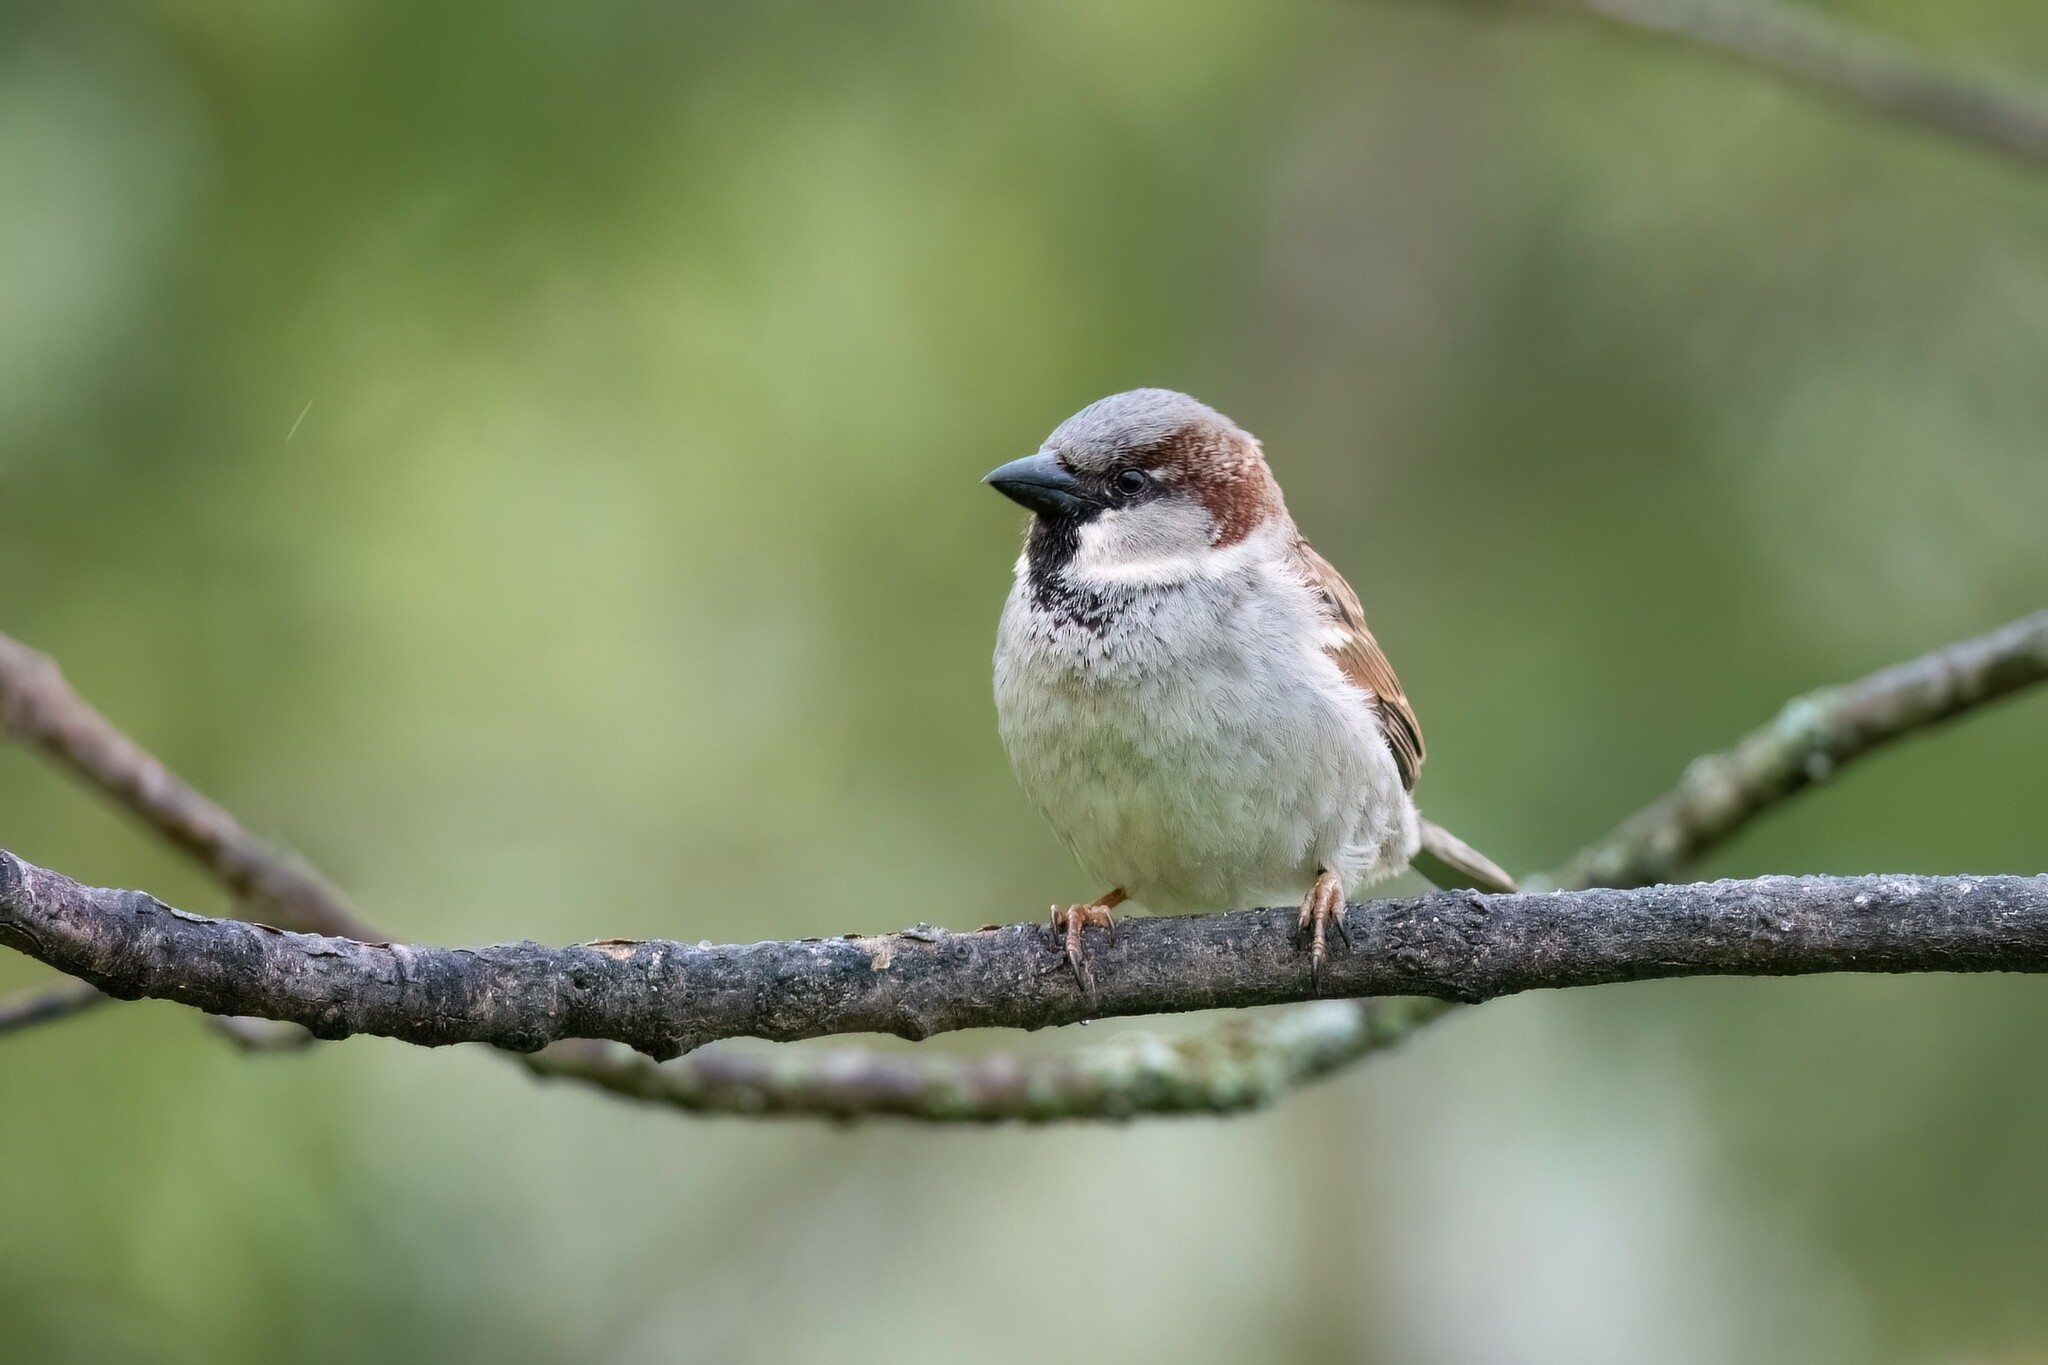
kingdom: Animalia
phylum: Chordata
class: Aves
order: Passeriformes
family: Passeridae
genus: Passer
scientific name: Passer domesticus
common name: House sparrow
